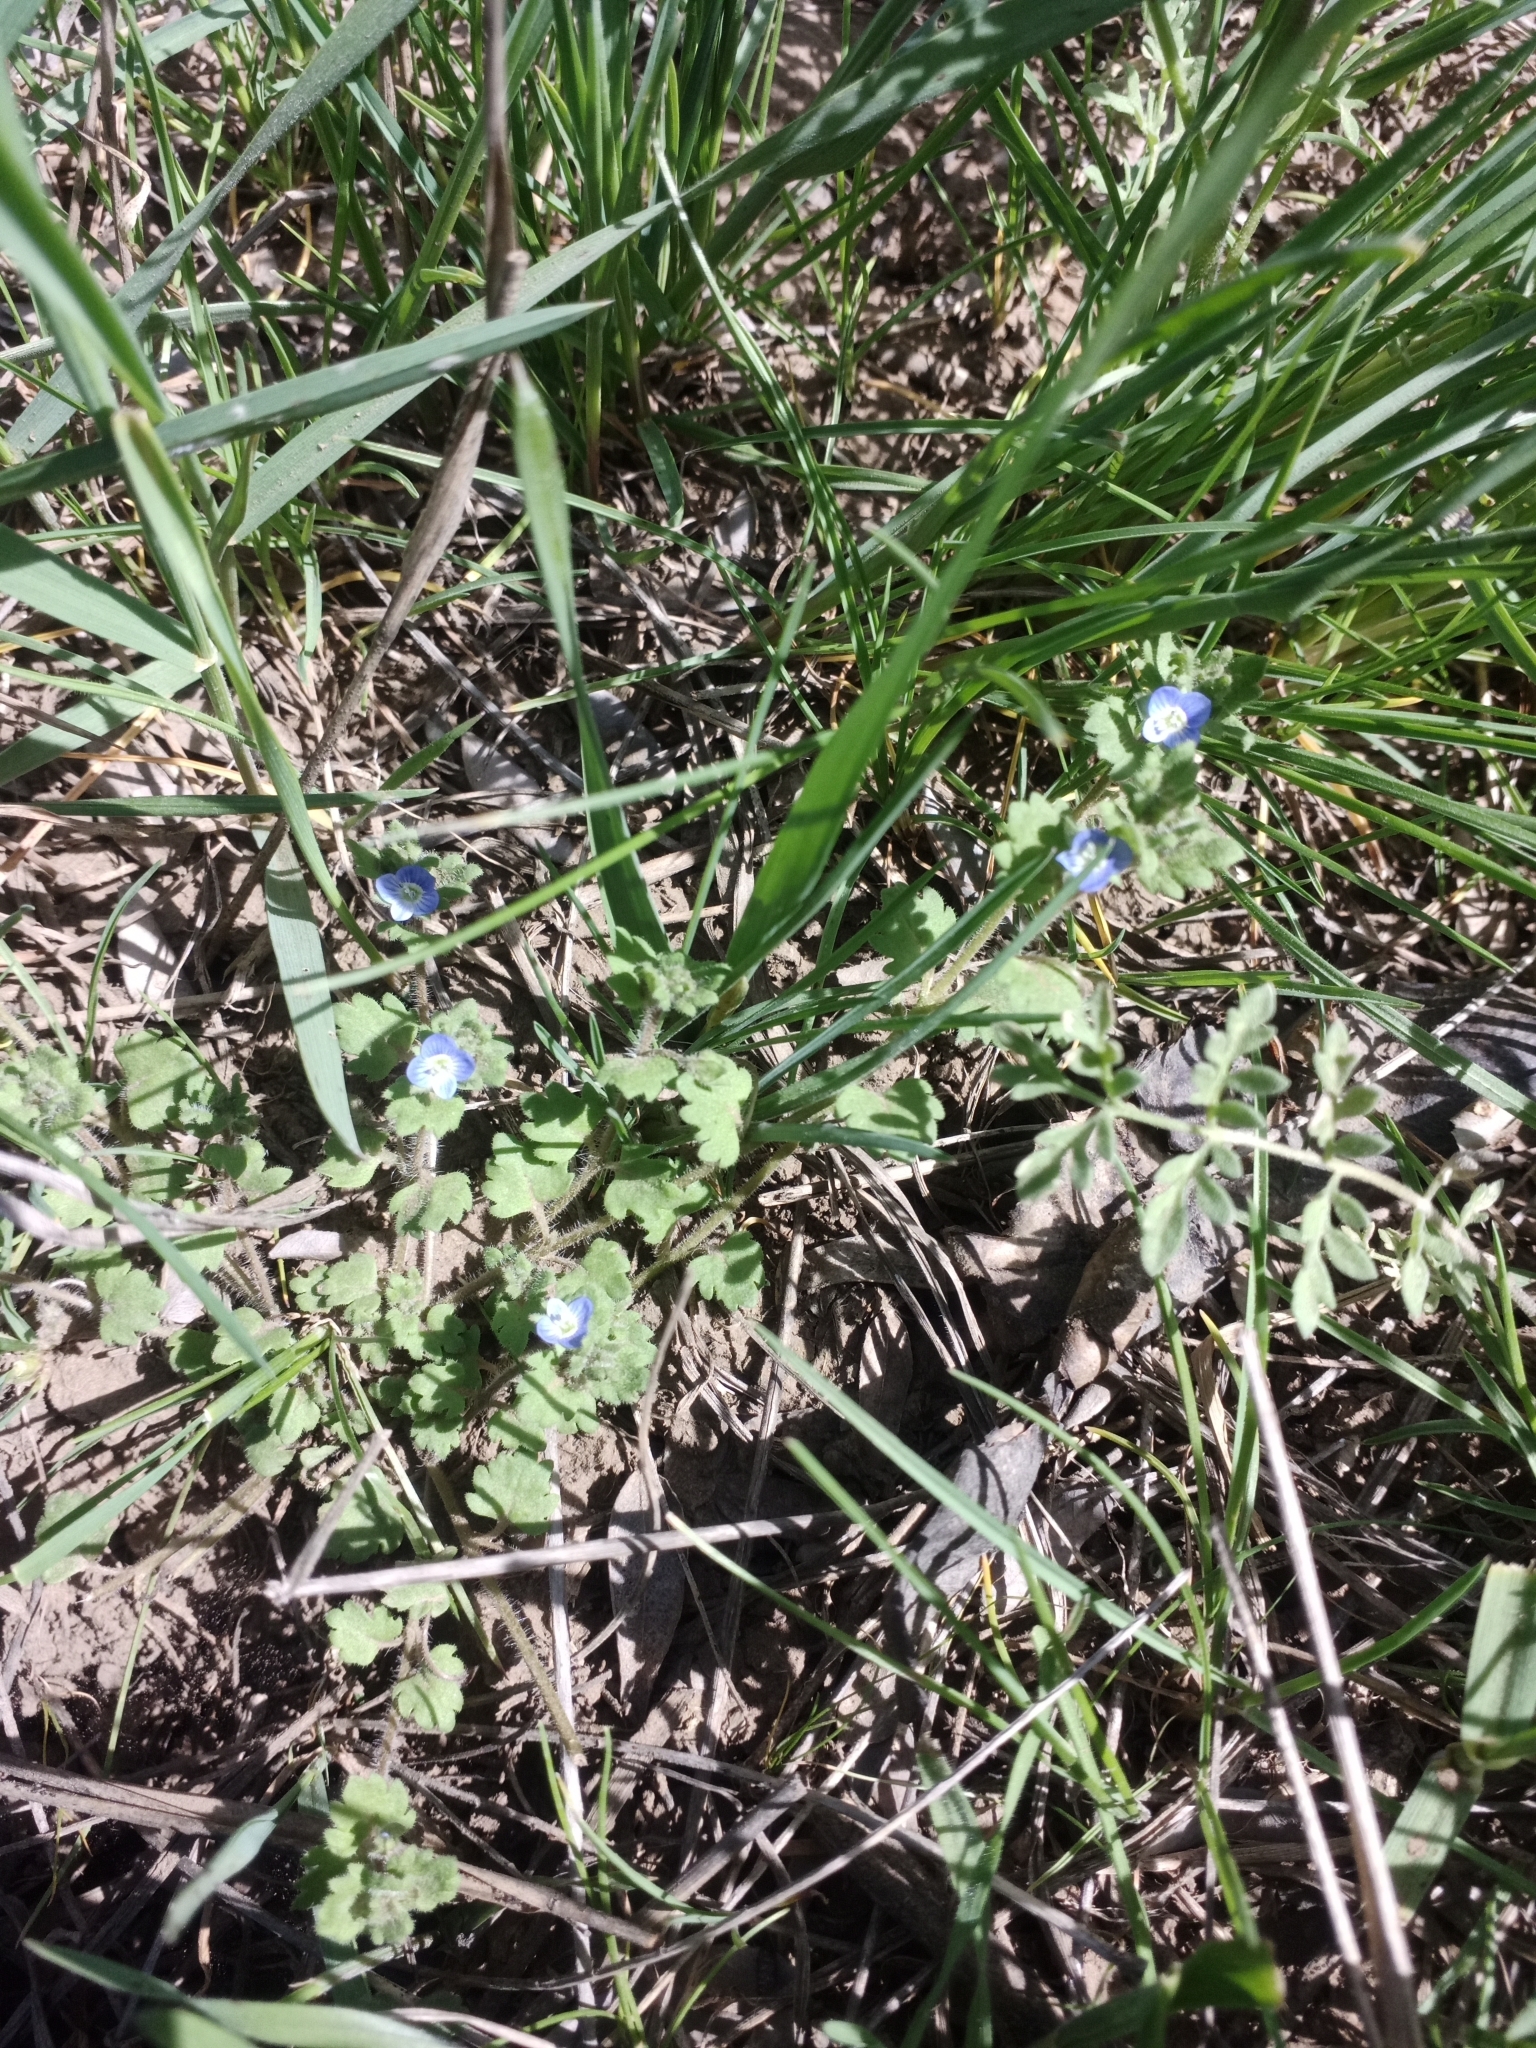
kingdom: Plantae
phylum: Tracheophyta
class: Magnoliopsida
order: Lamiales
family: Plantaginaceae
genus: Veronica
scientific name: Veronica polita
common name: Grey field-speedwell
